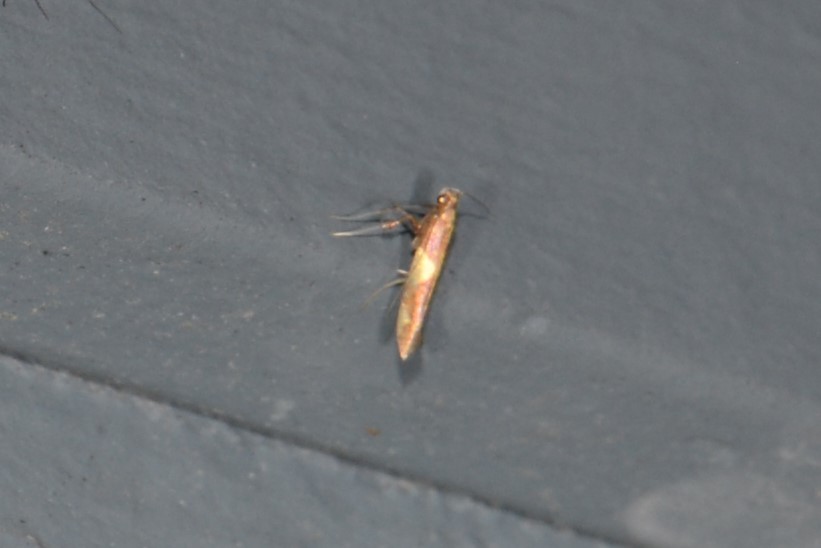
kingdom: Animalia
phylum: Arthropoda
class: Insecta
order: Lepidoptera
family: Gracillariidae
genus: Caloptilia
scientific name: Caloptilia bimaculatella
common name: Maple caloptilia moth
